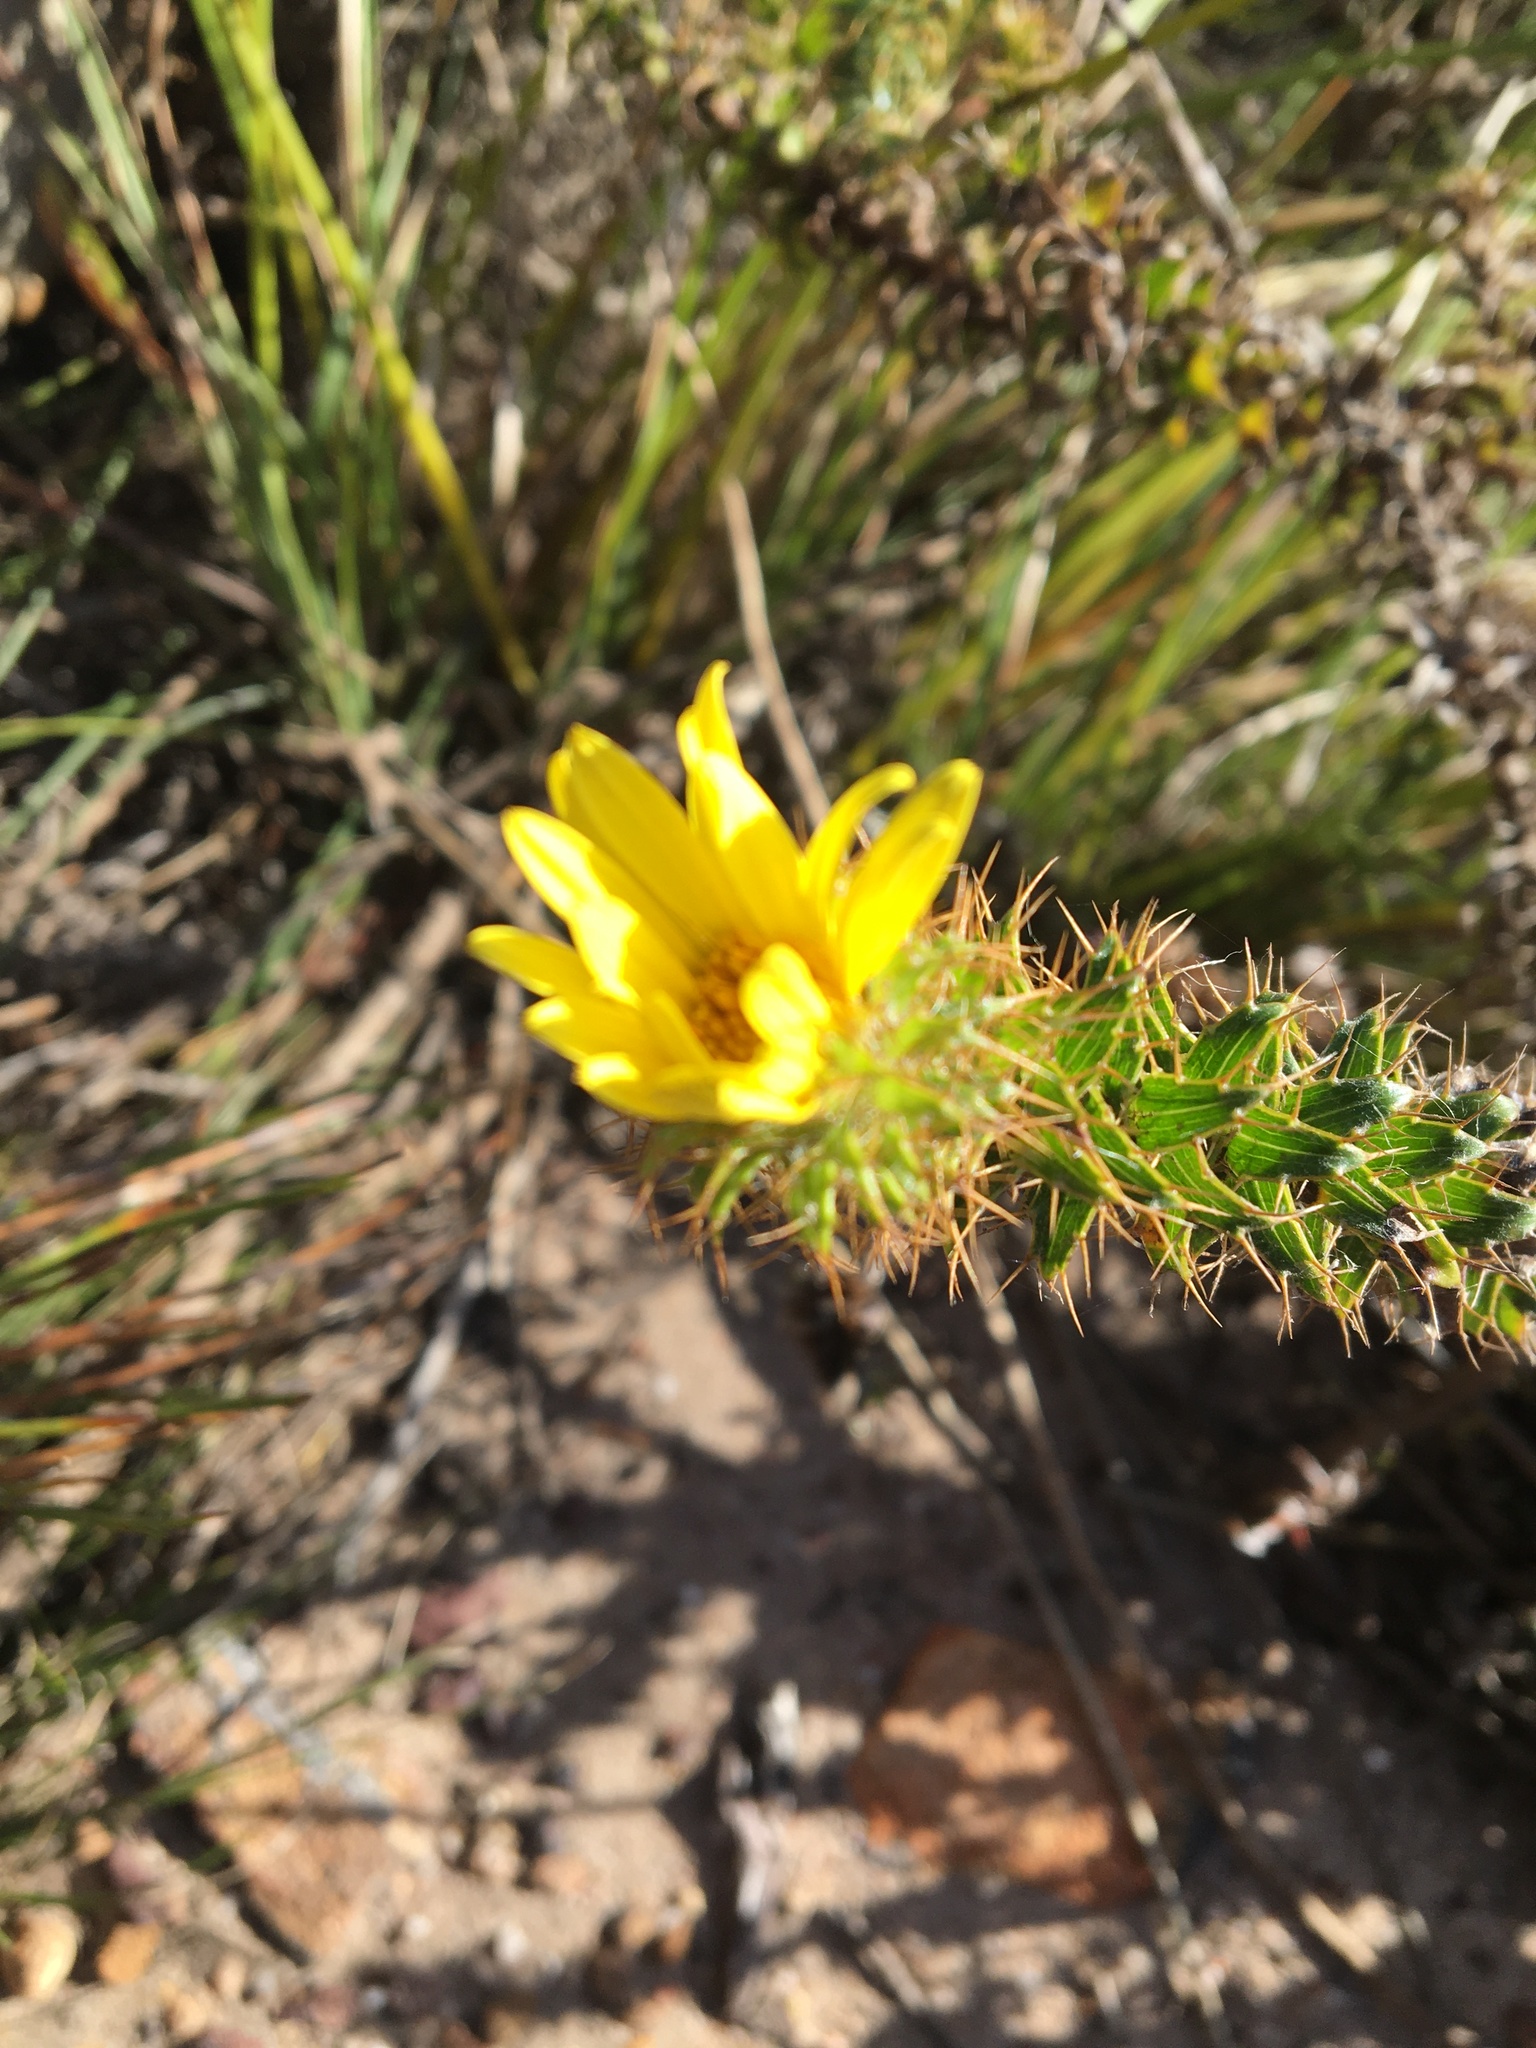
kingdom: Plantae
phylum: Tracheophyta
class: Magnoliopsida
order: Asterales
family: Asteraceae
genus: Cullumia
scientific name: Cullumia setosa
